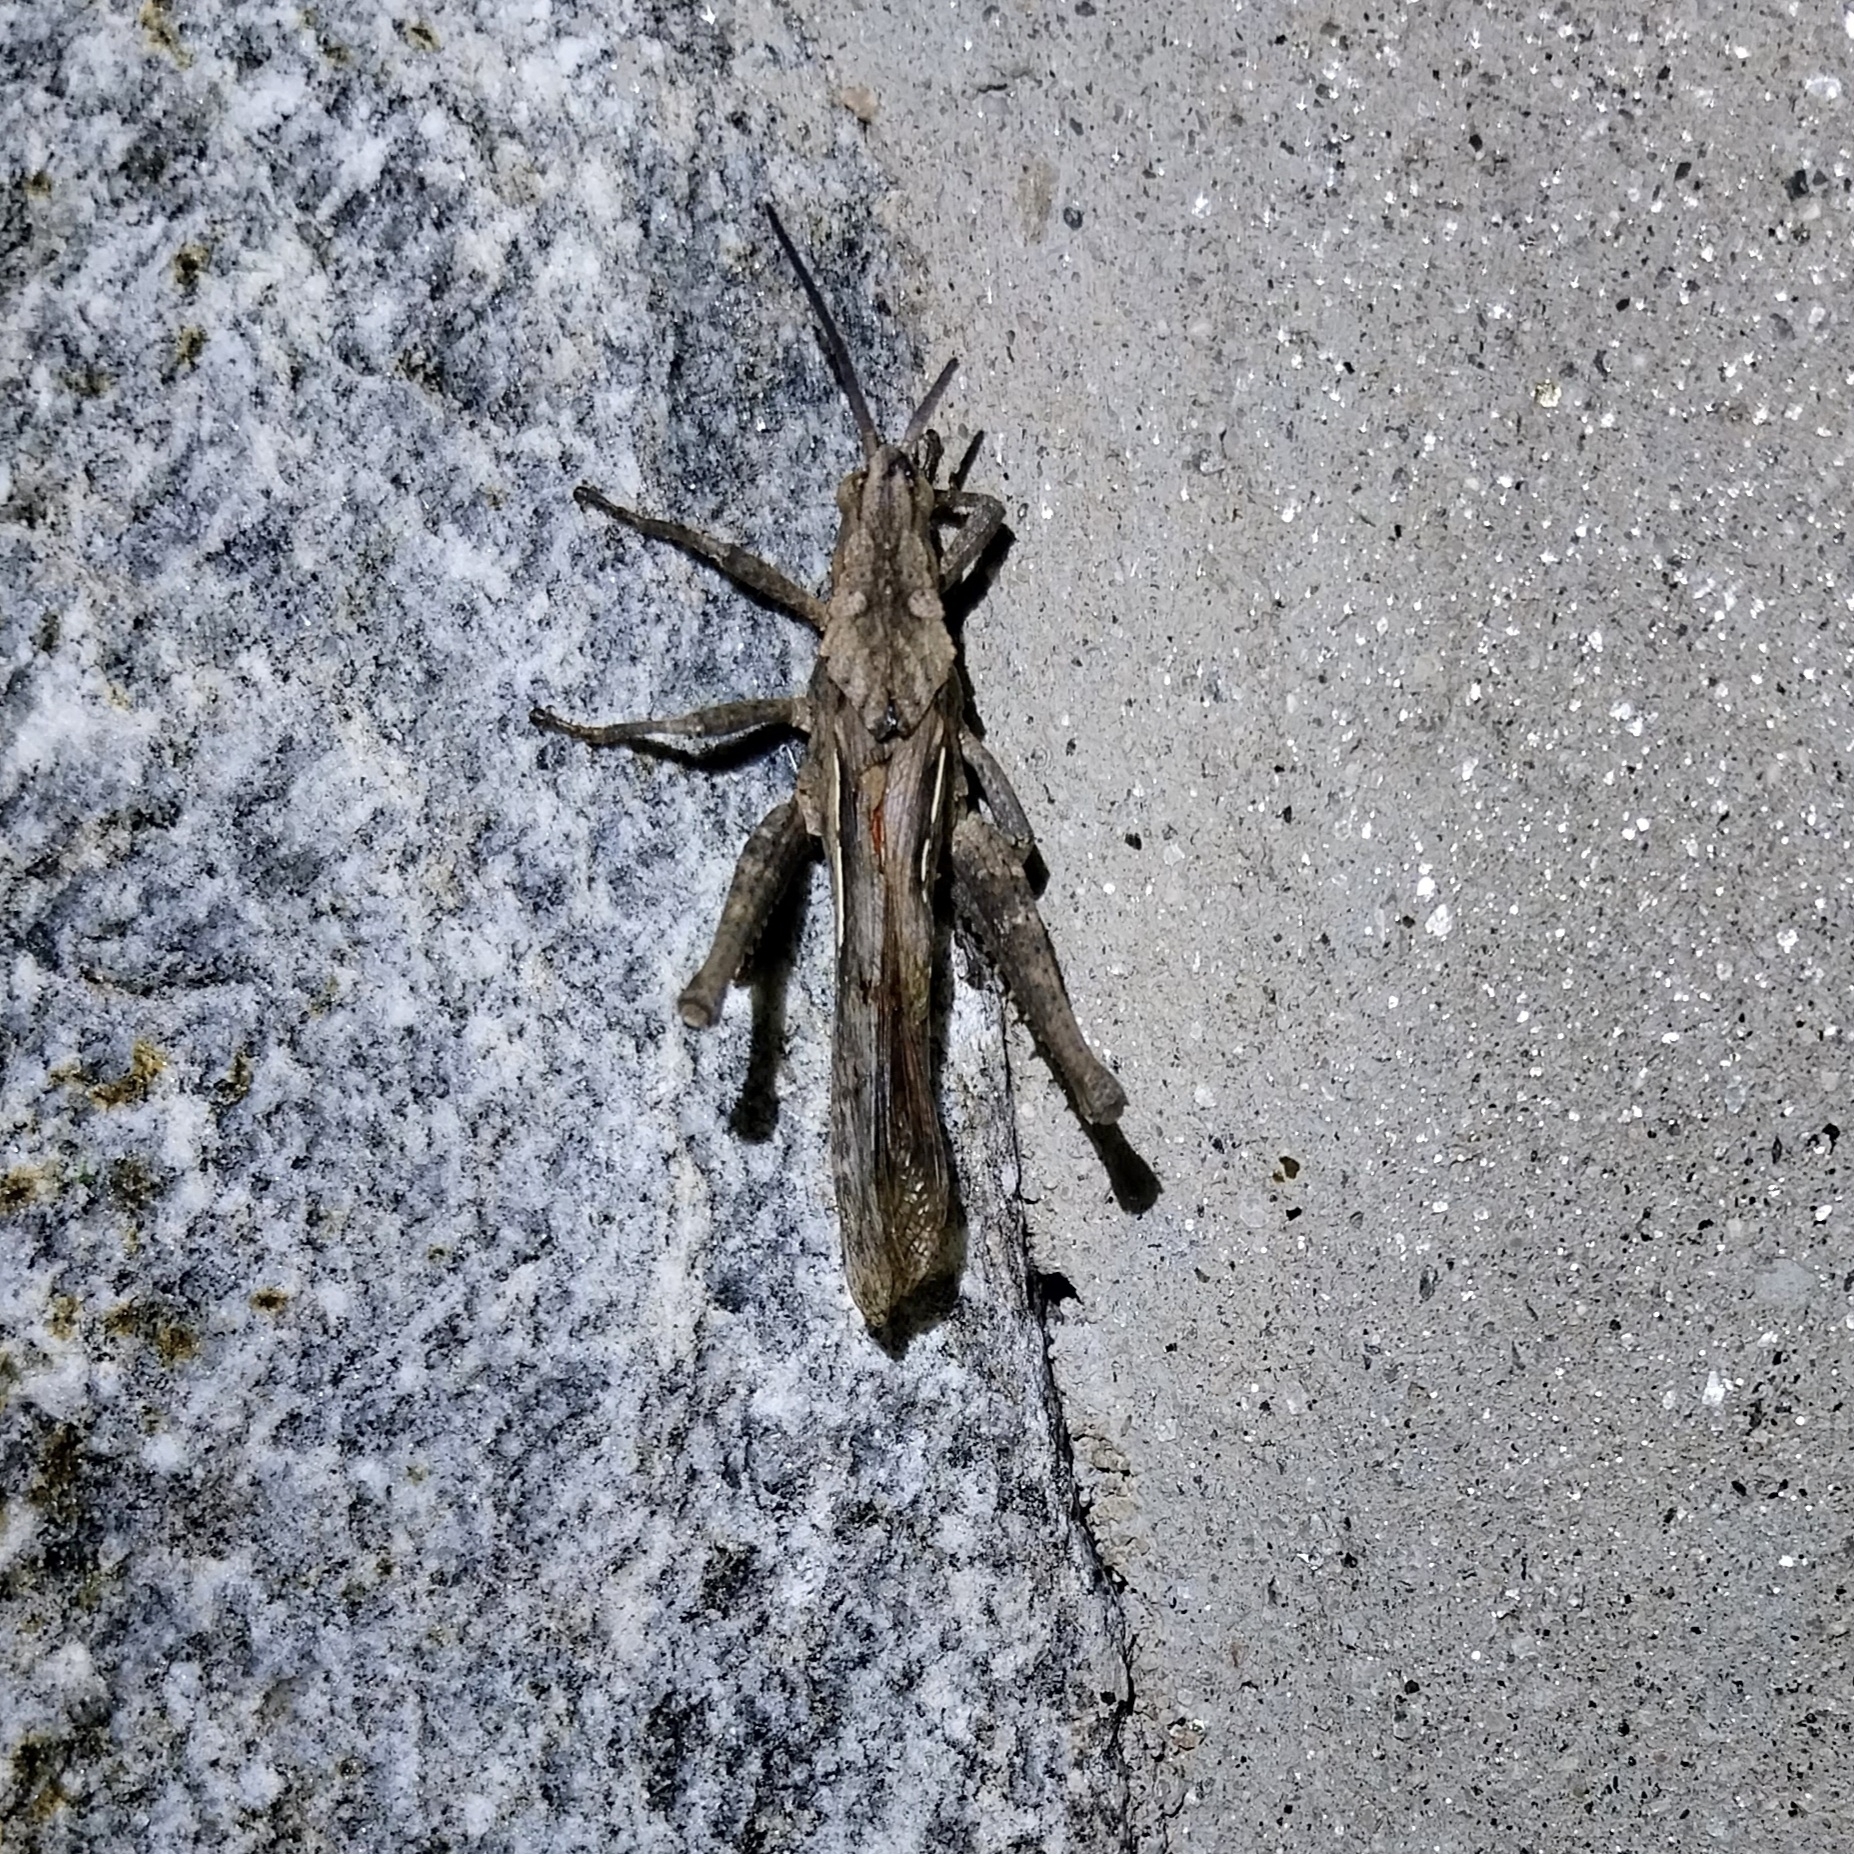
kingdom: Animalia
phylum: Arthropoda
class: Insecta
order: Orthoptera
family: Romaleidae
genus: Xyleus
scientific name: Xyleus insignis
